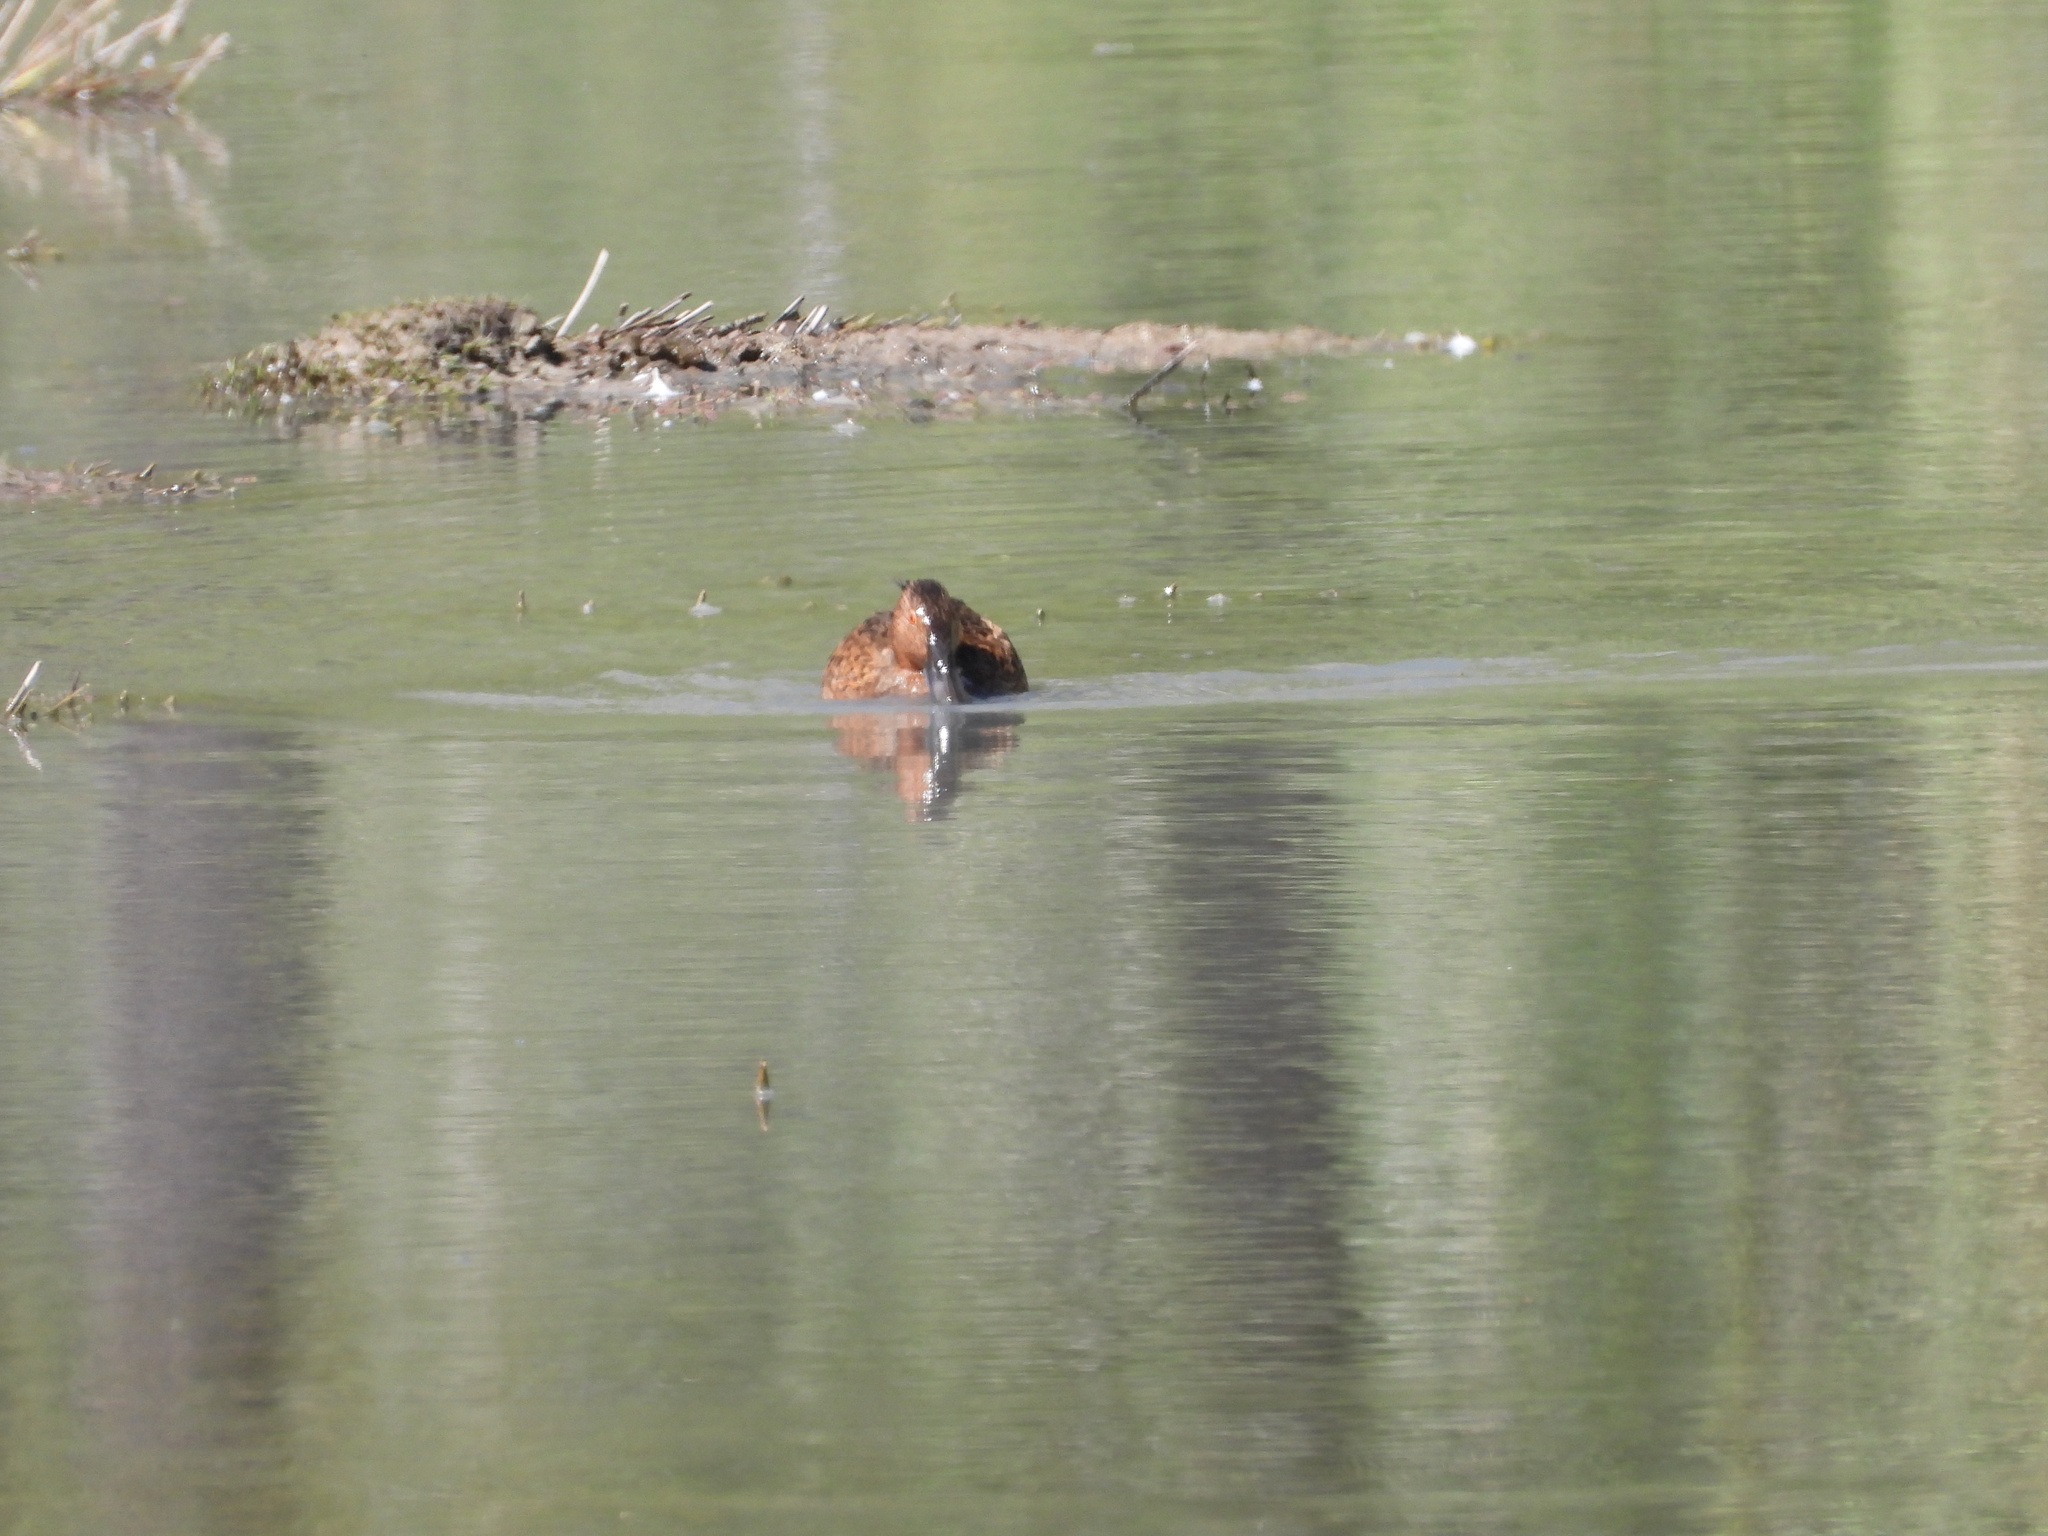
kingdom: Animalia
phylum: Chordata
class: Aves
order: Anseriformes
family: Anatidae
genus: Spatula
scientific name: Spatula cyanoptera
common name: Cinnamon teal
